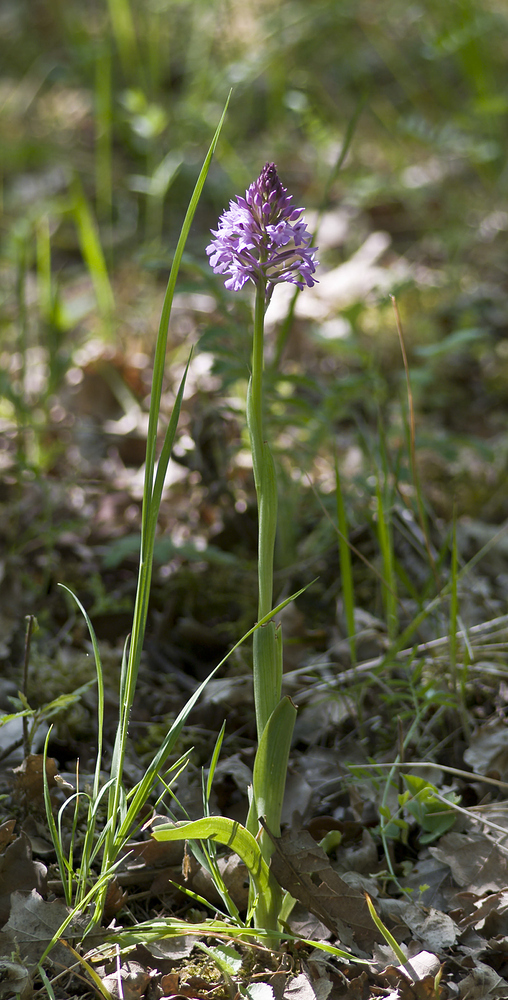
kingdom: Plantae
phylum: Tracheophyta
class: Liliopsida
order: Asparagales
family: Orchidaceae
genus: Anacamptis
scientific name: Anacamptis pyramidalis
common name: Pyramidal orchid
